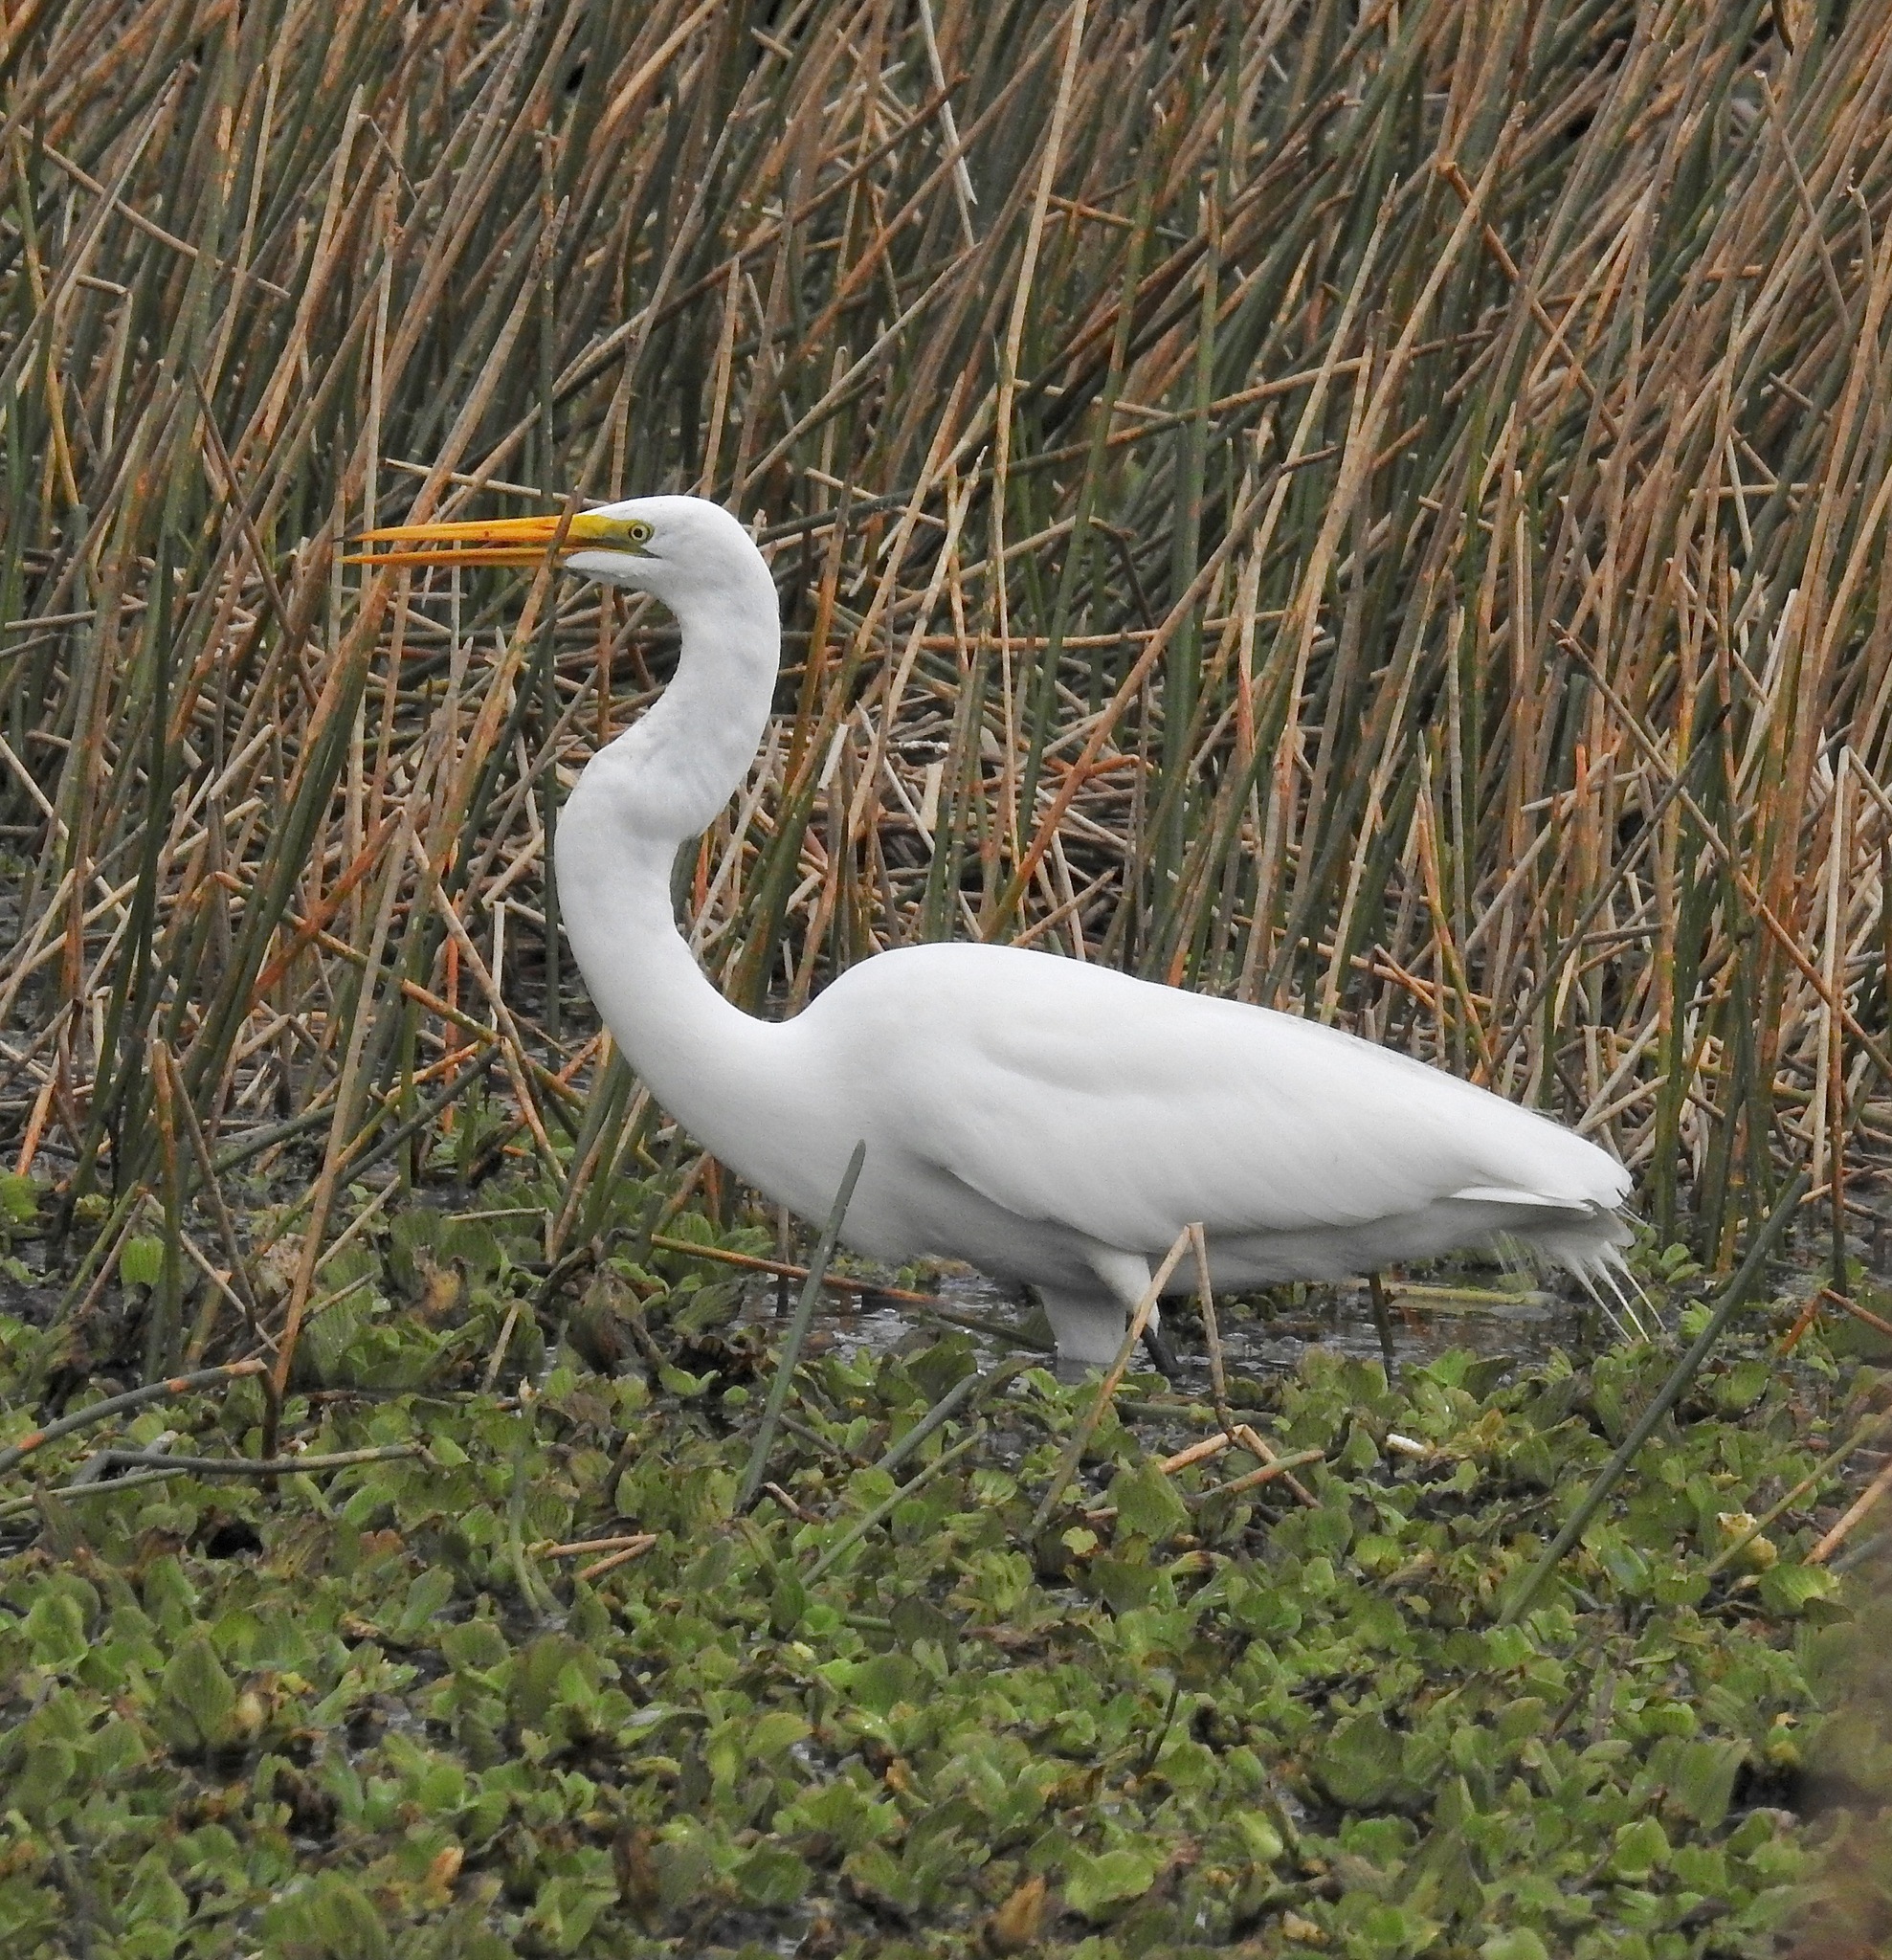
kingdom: Animalia
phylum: Chordata
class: Aves
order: Pelecaniformes
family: Ardeidae
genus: Ardea
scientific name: Ardea alba
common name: Great egret
